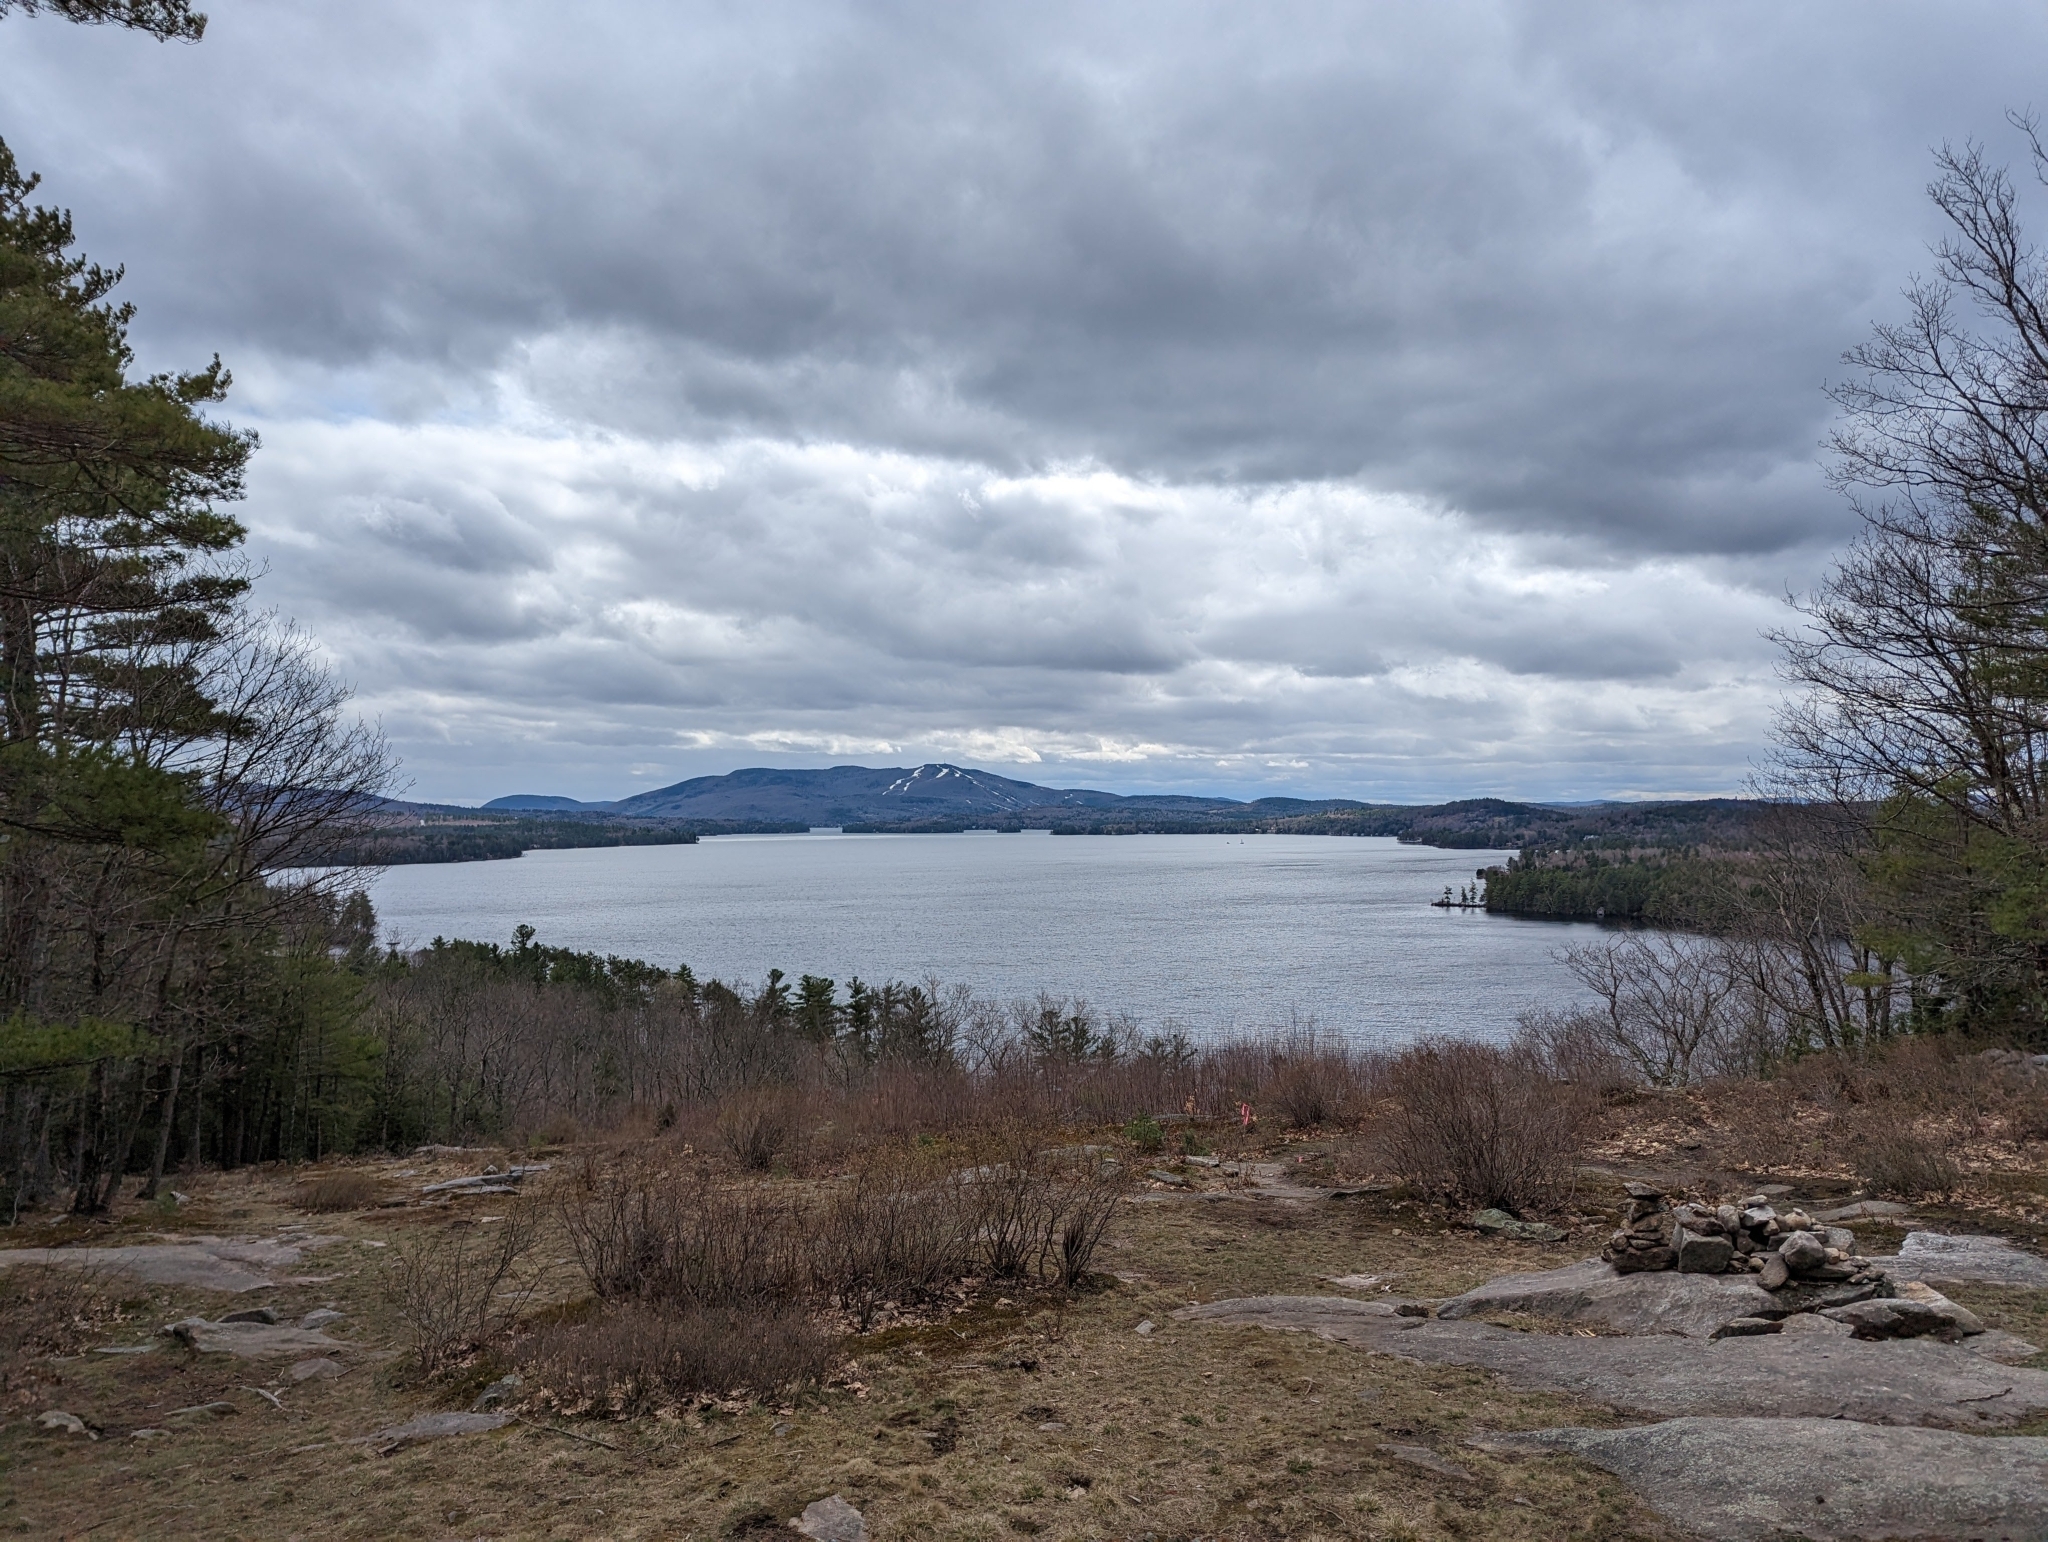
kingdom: Plantae
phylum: Tracheophyta
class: Pinopsida
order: Pinales
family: Pinaceae
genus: Pinus
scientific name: Pinus strobus
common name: Weymouth pine
